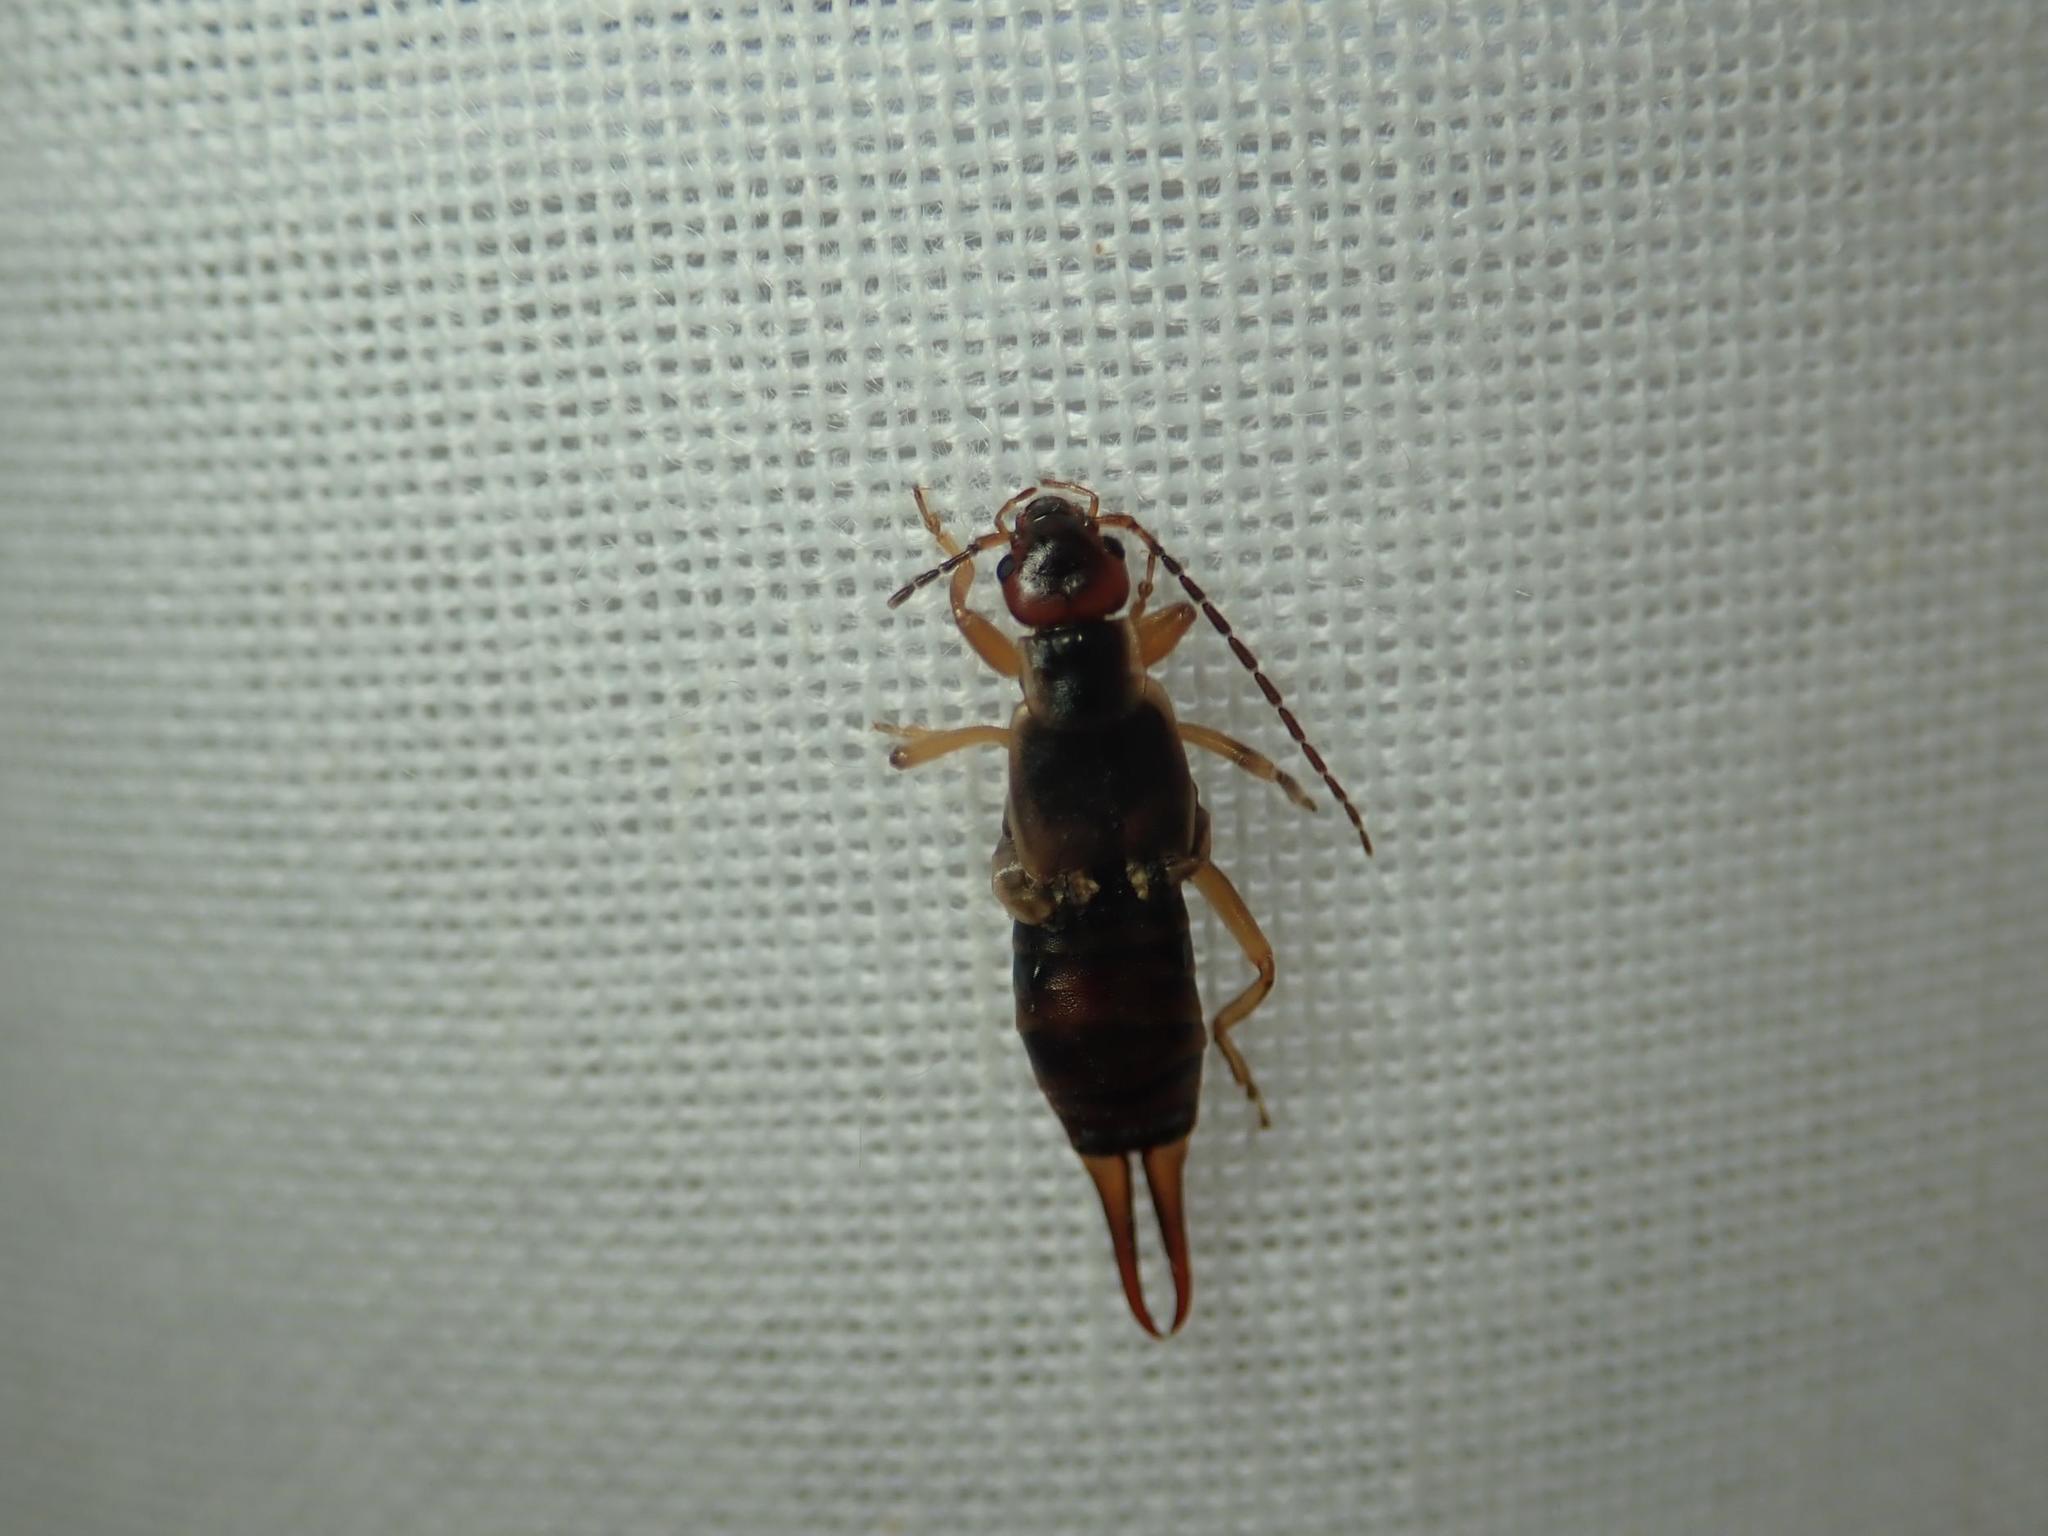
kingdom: Animalia
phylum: Arthropoda
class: Insecta
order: Dermaptera
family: Forficulidae
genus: Forficula
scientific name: Forficula
